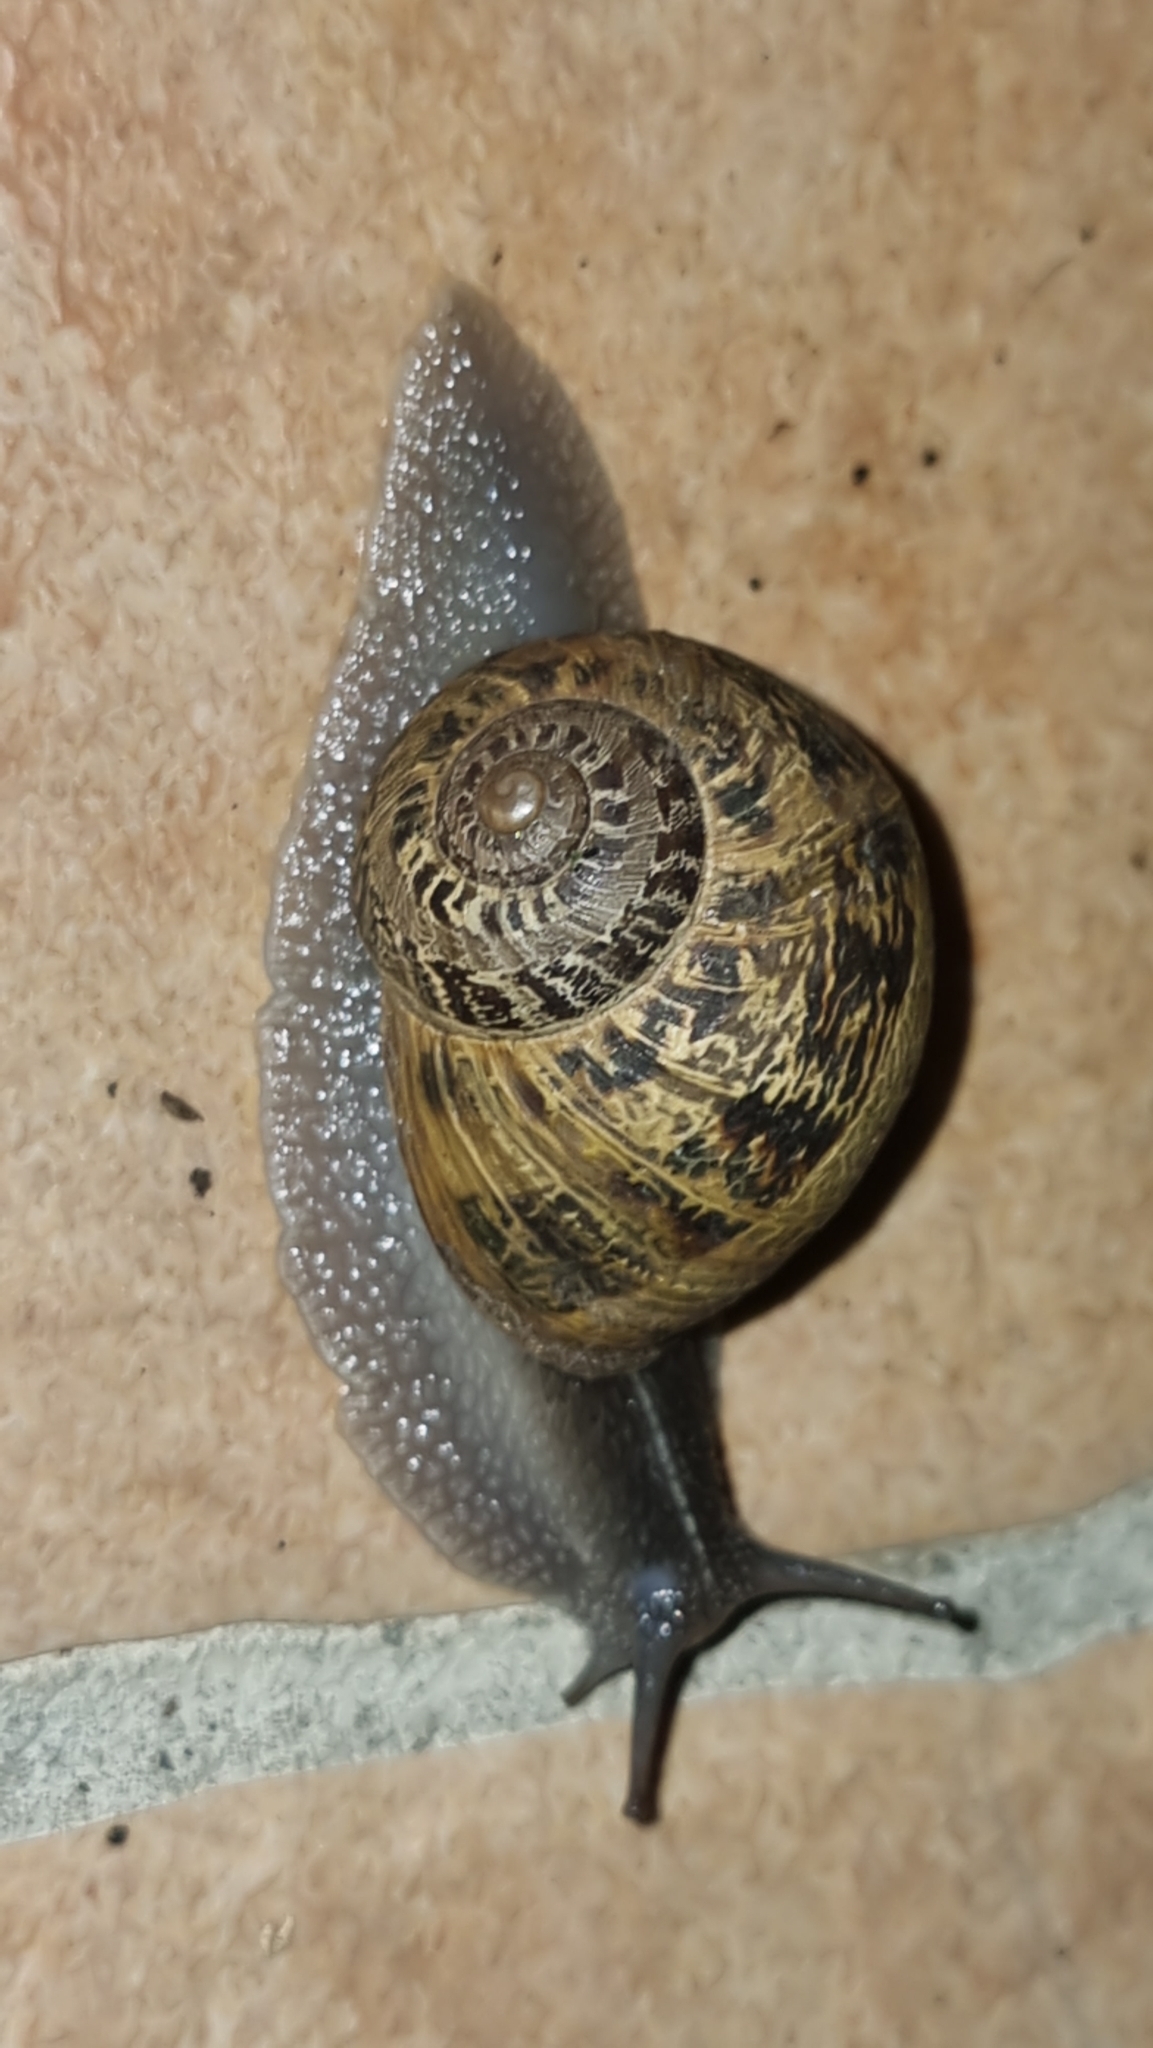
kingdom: Animalia
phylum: Mollusca
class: Gastropoda
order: Stylommatophora
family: Helicidae
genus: Cornu
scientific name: Cornu aspersum
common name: Brown garden snail
